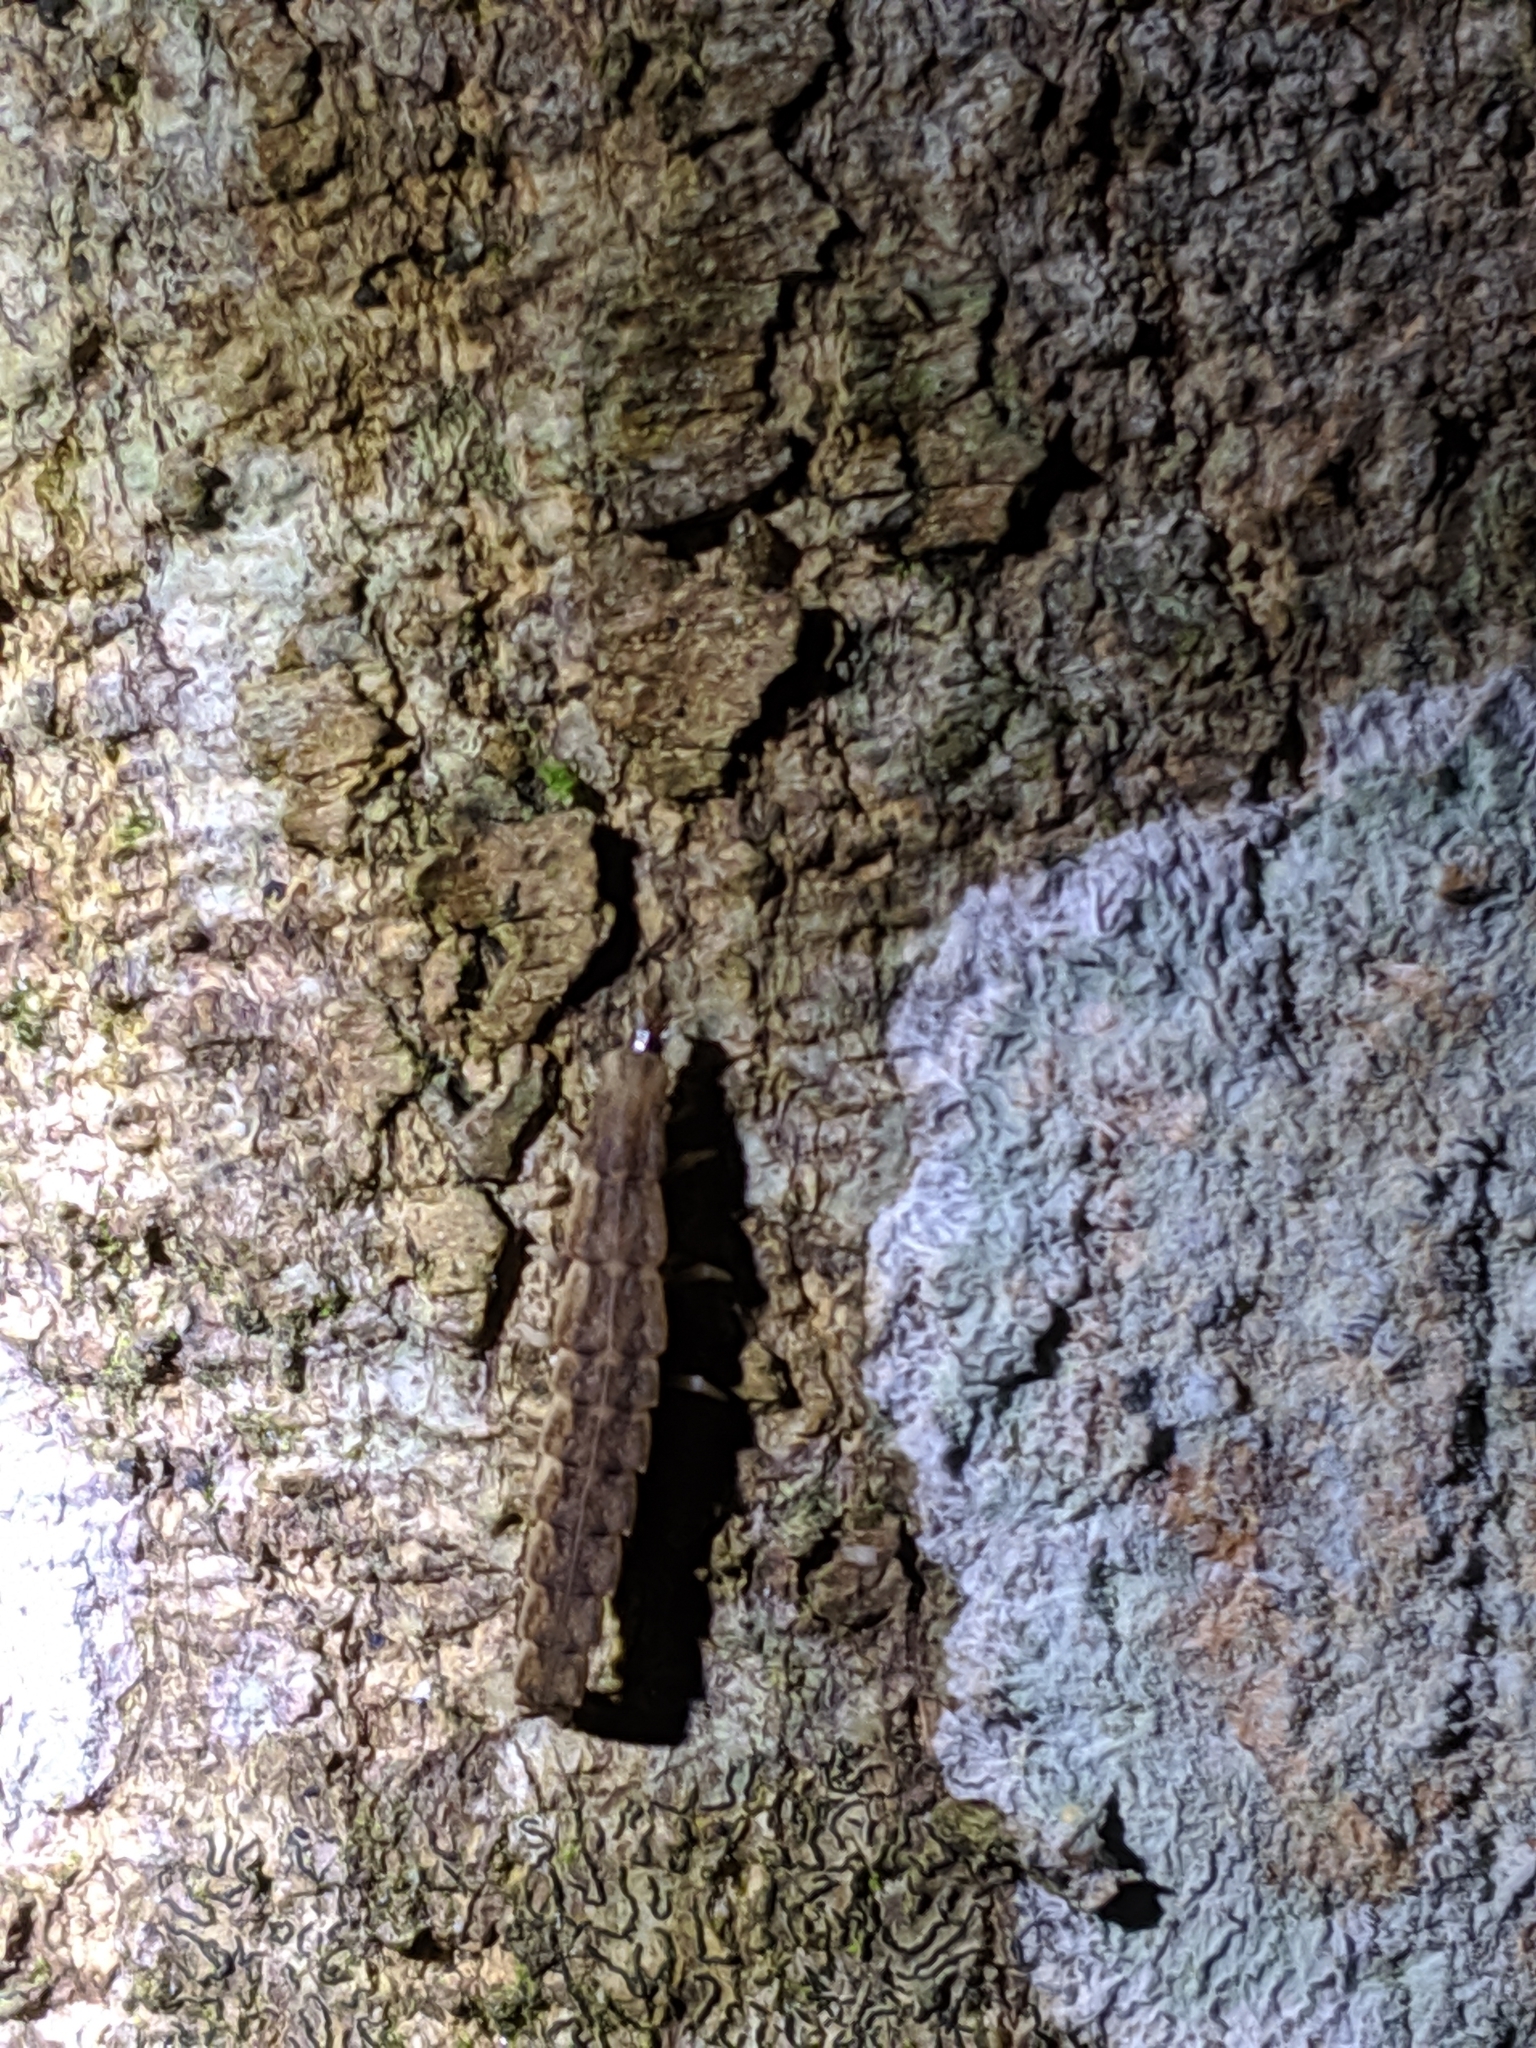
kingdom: Animalia
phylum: Arthropoda
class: Insecta
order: Coleoptera
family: Lampyridae
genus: Pyrocoelia
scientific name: Pyrocoelia formosana
